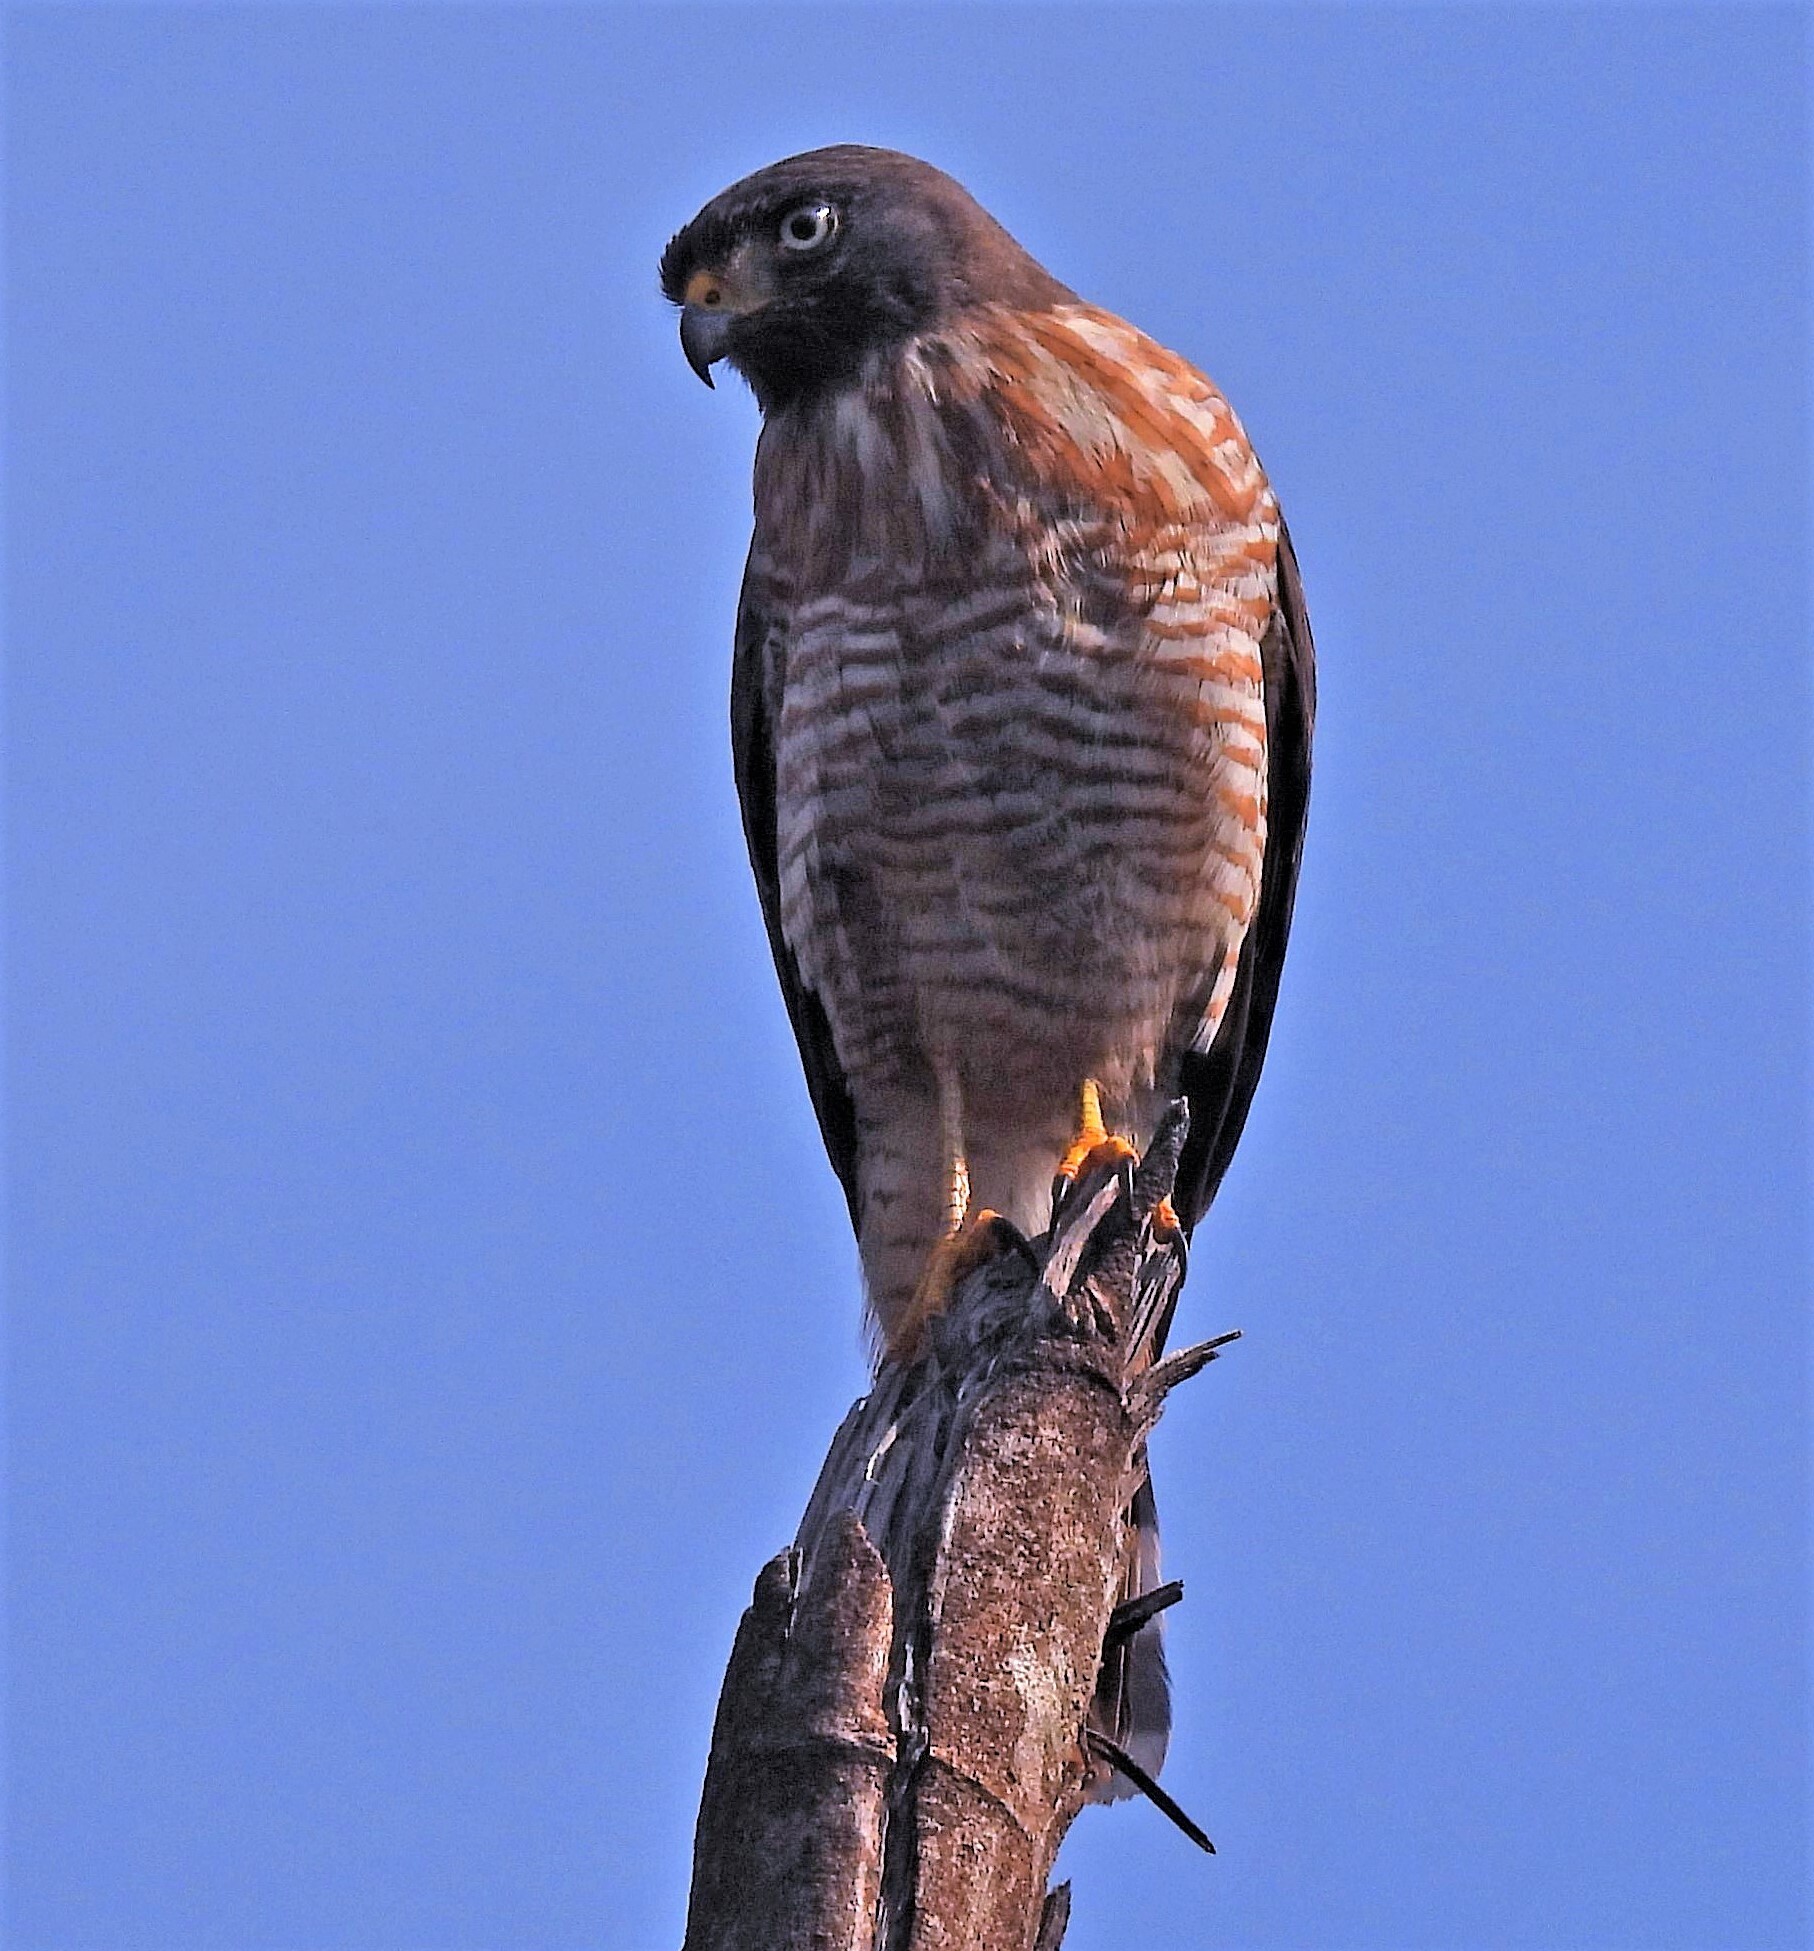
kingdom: Animalia
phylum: Chordata
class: Aves
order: Accipitriformes
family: Accipitridae
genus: Rupornis
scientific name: Rupornis magnirostris
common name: Roadside hawk
